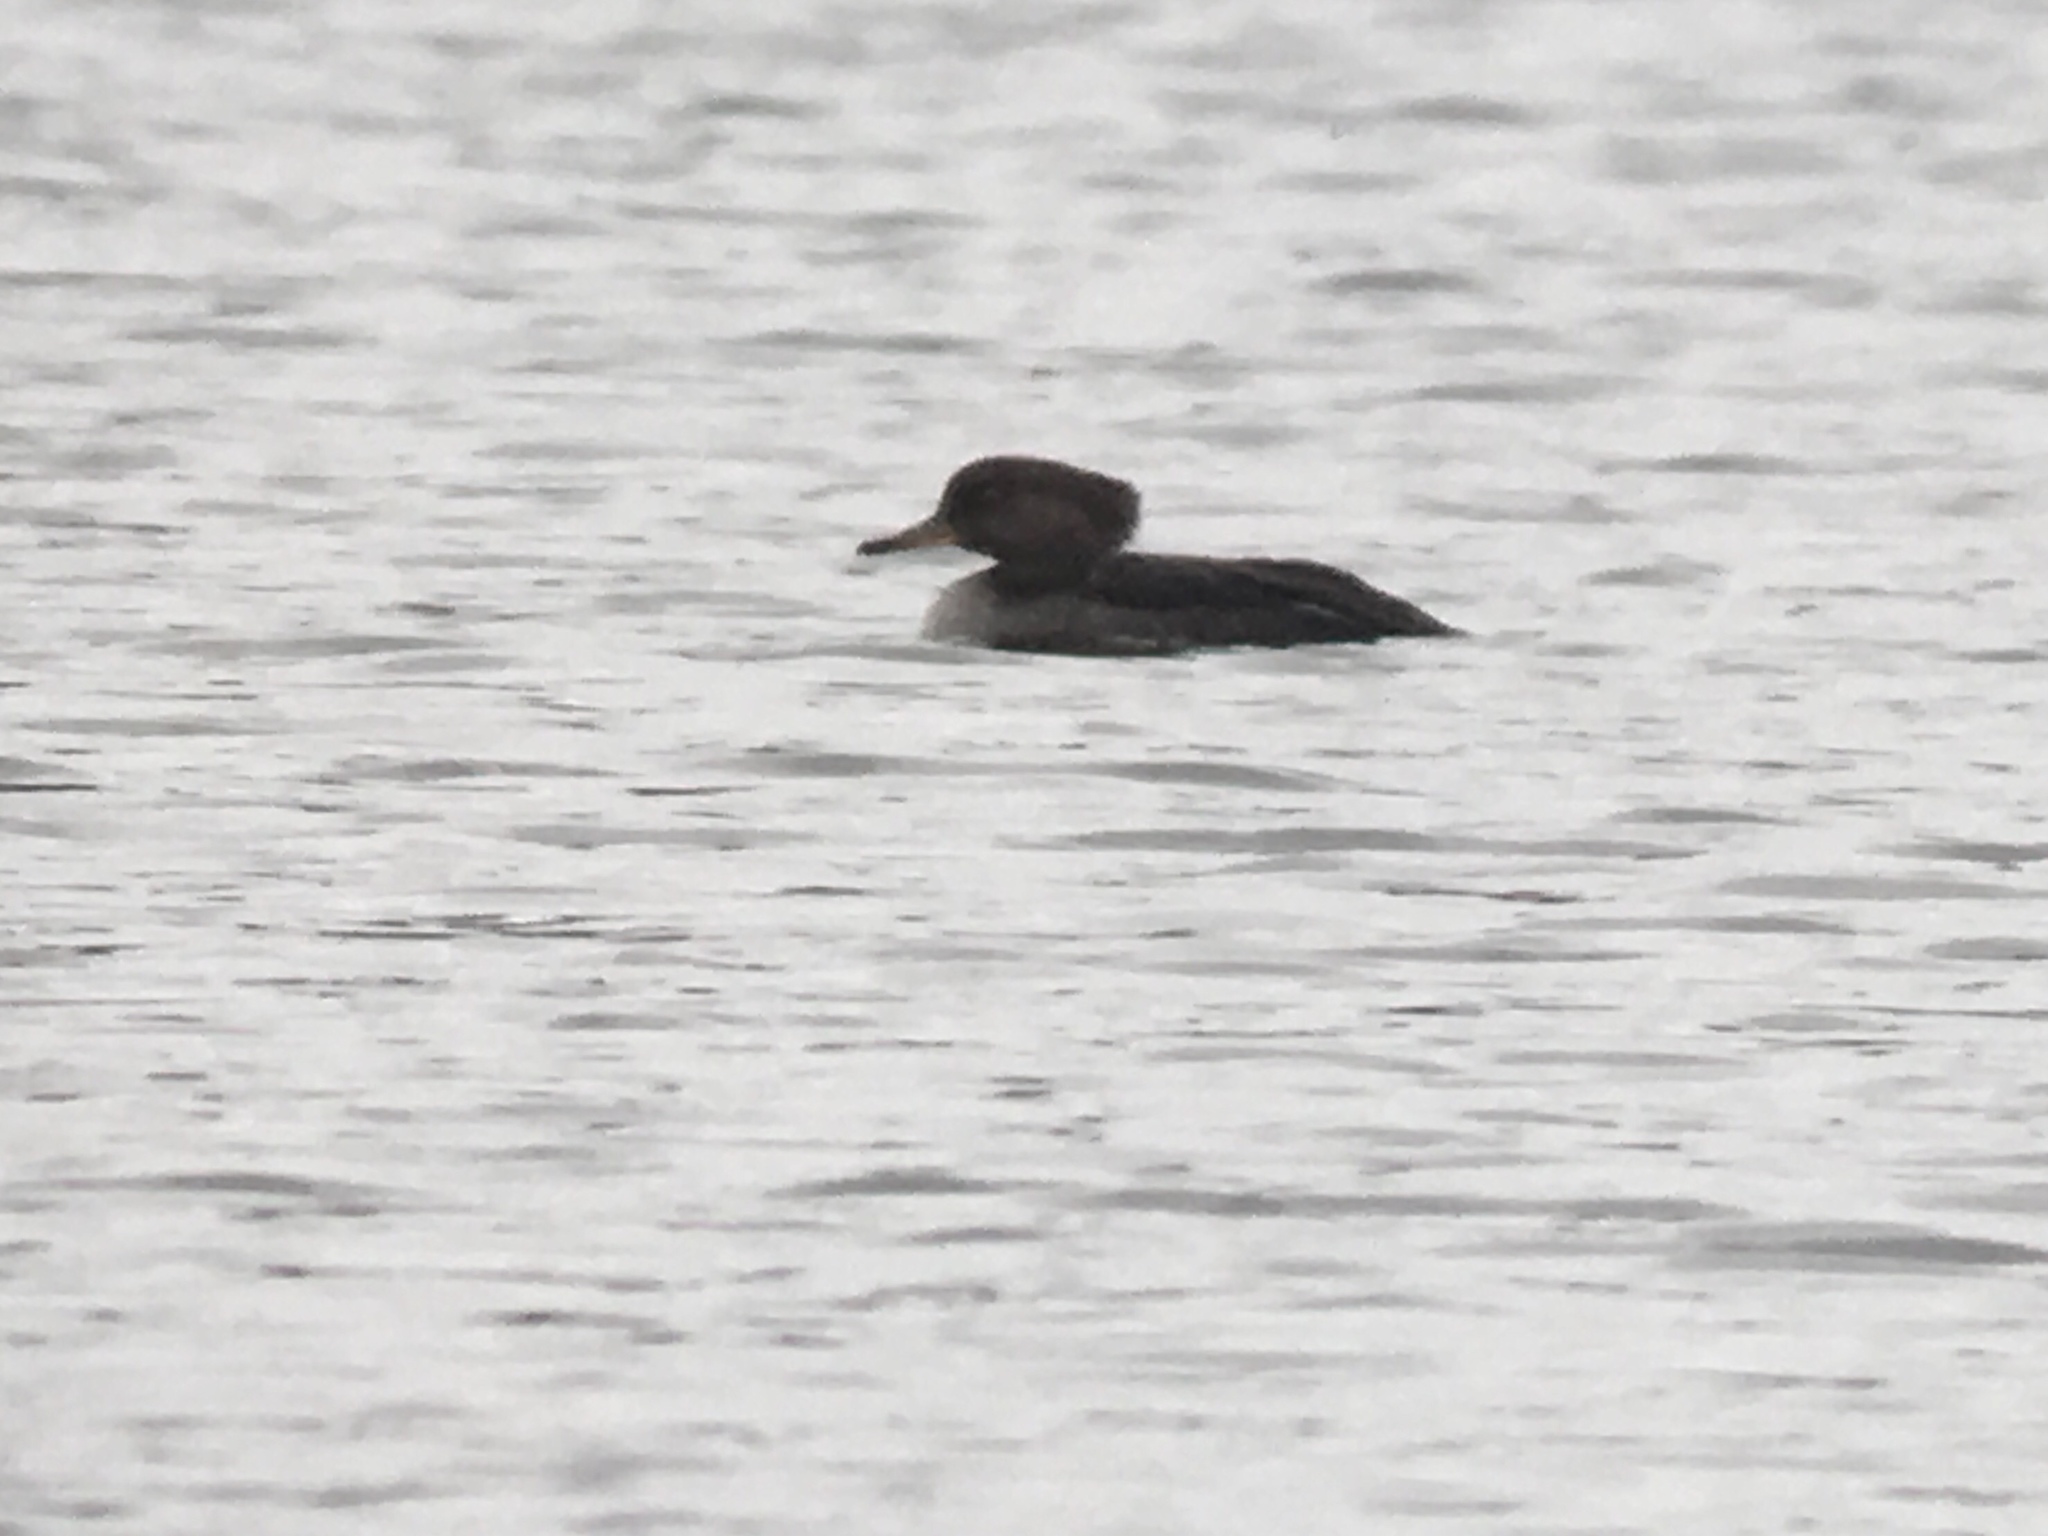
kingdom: Animalia
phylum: Chordata
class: Aves
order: Anseriformes
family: Anatidae
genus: Lophodytes
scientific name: Lophodytes cucullatus
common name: Hooded merganser
